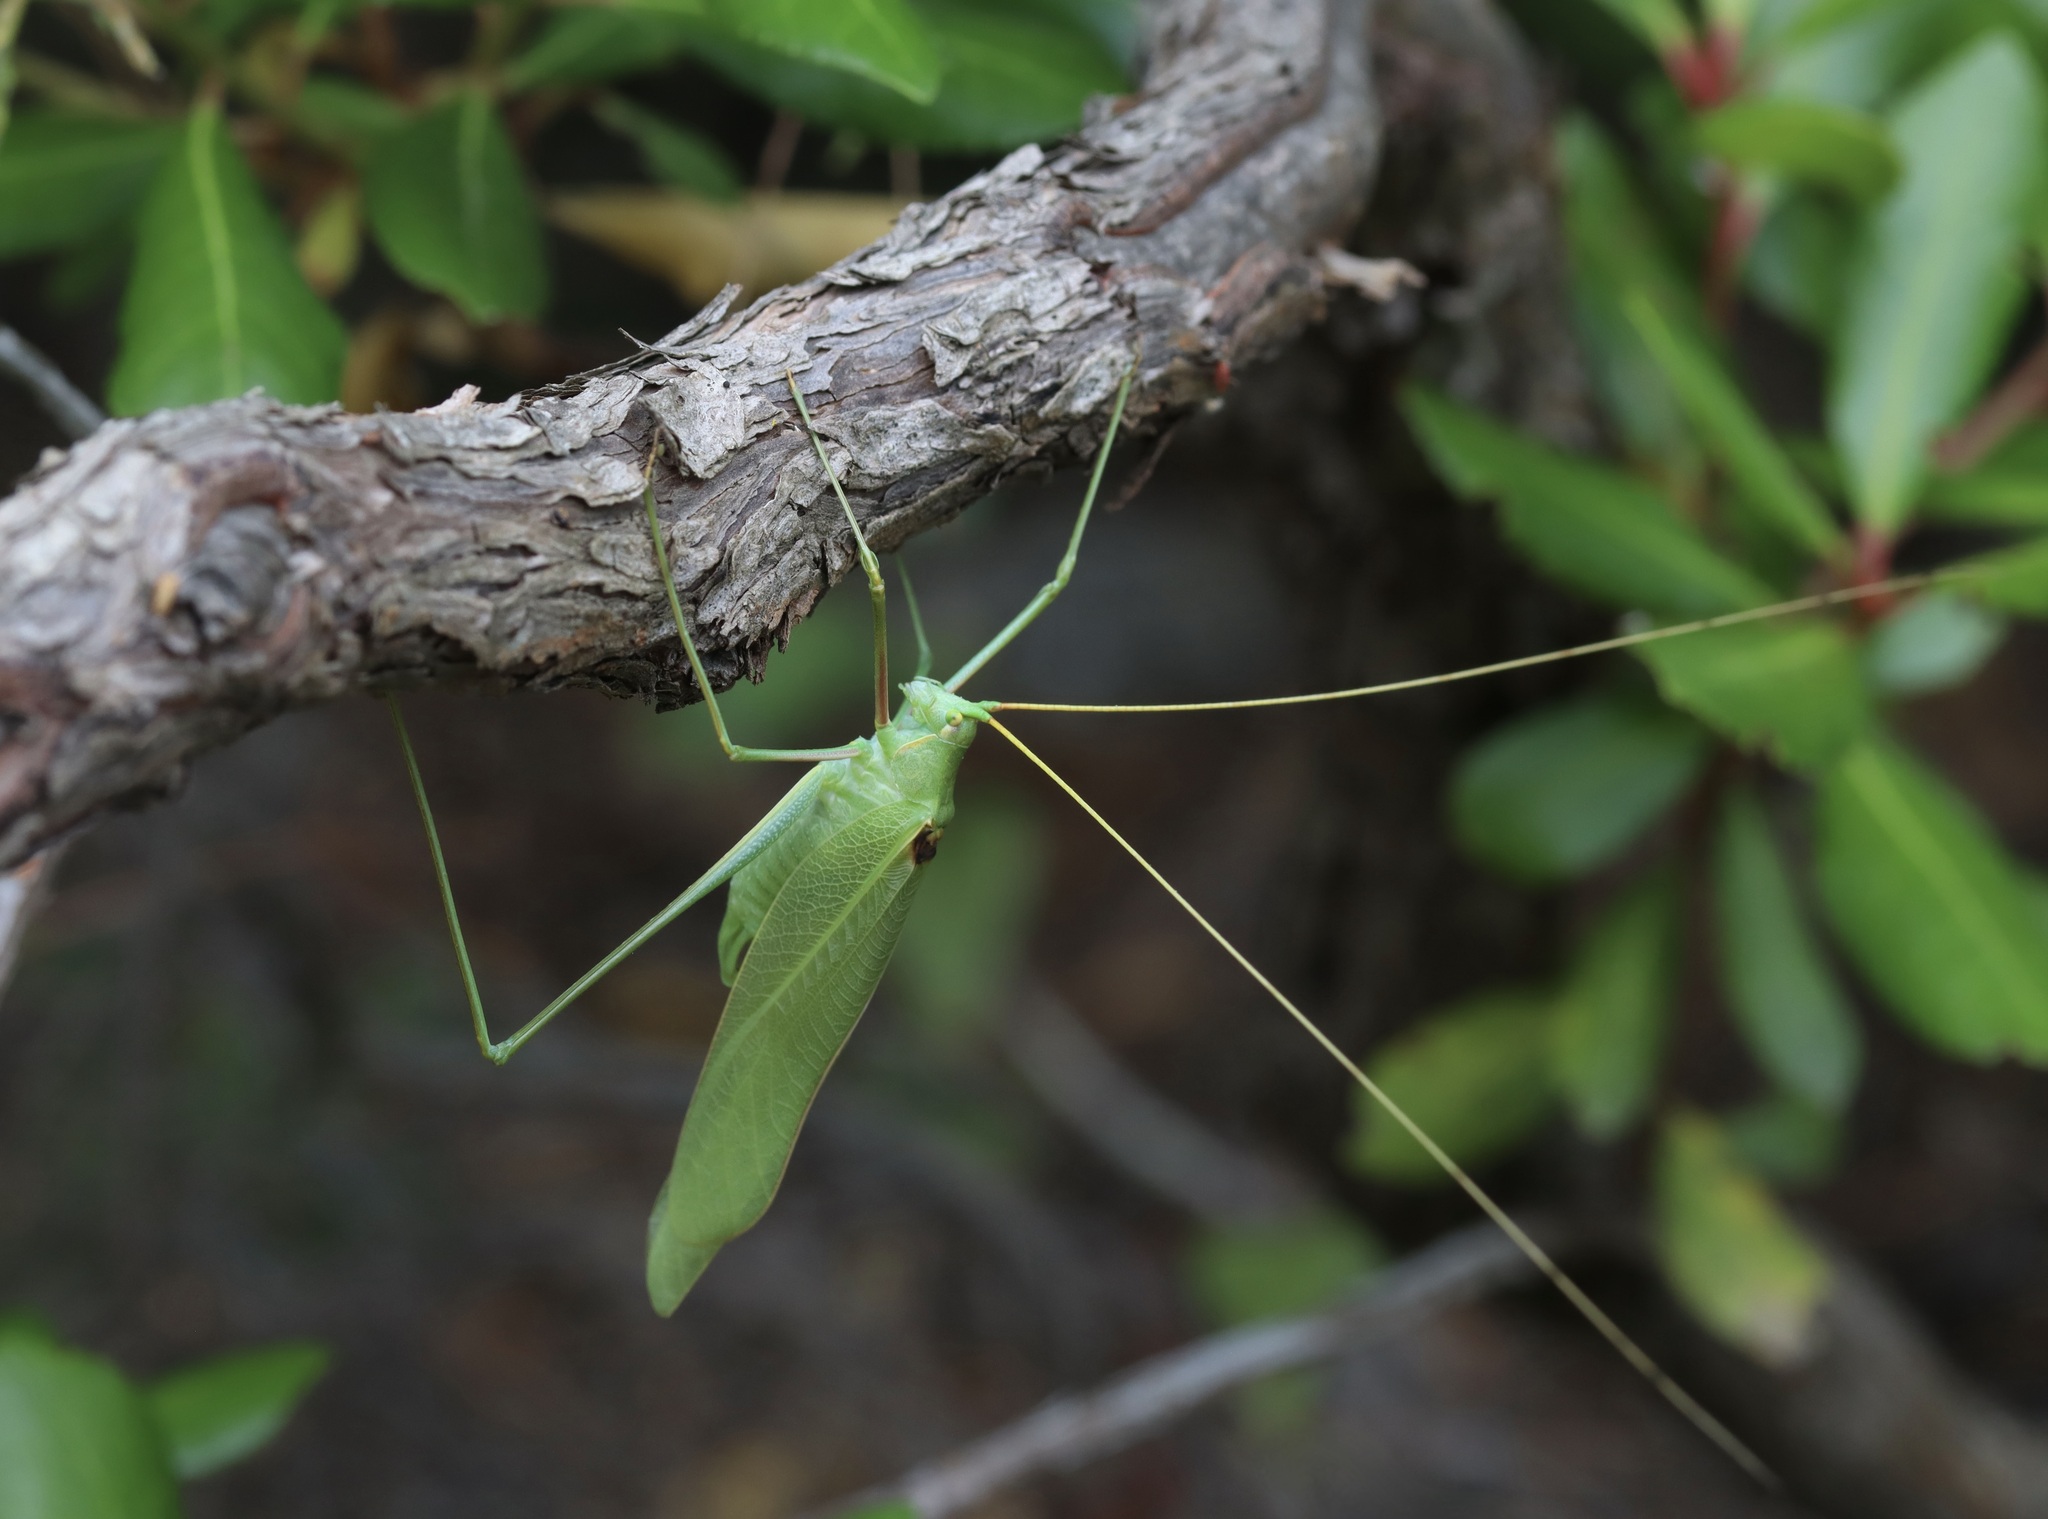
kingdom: Animalia
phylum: Arthropoda
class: Insecta
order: Orthoptera
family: Tettigoniidae
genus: Acrometopa
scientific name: Acrometopa macropoda
